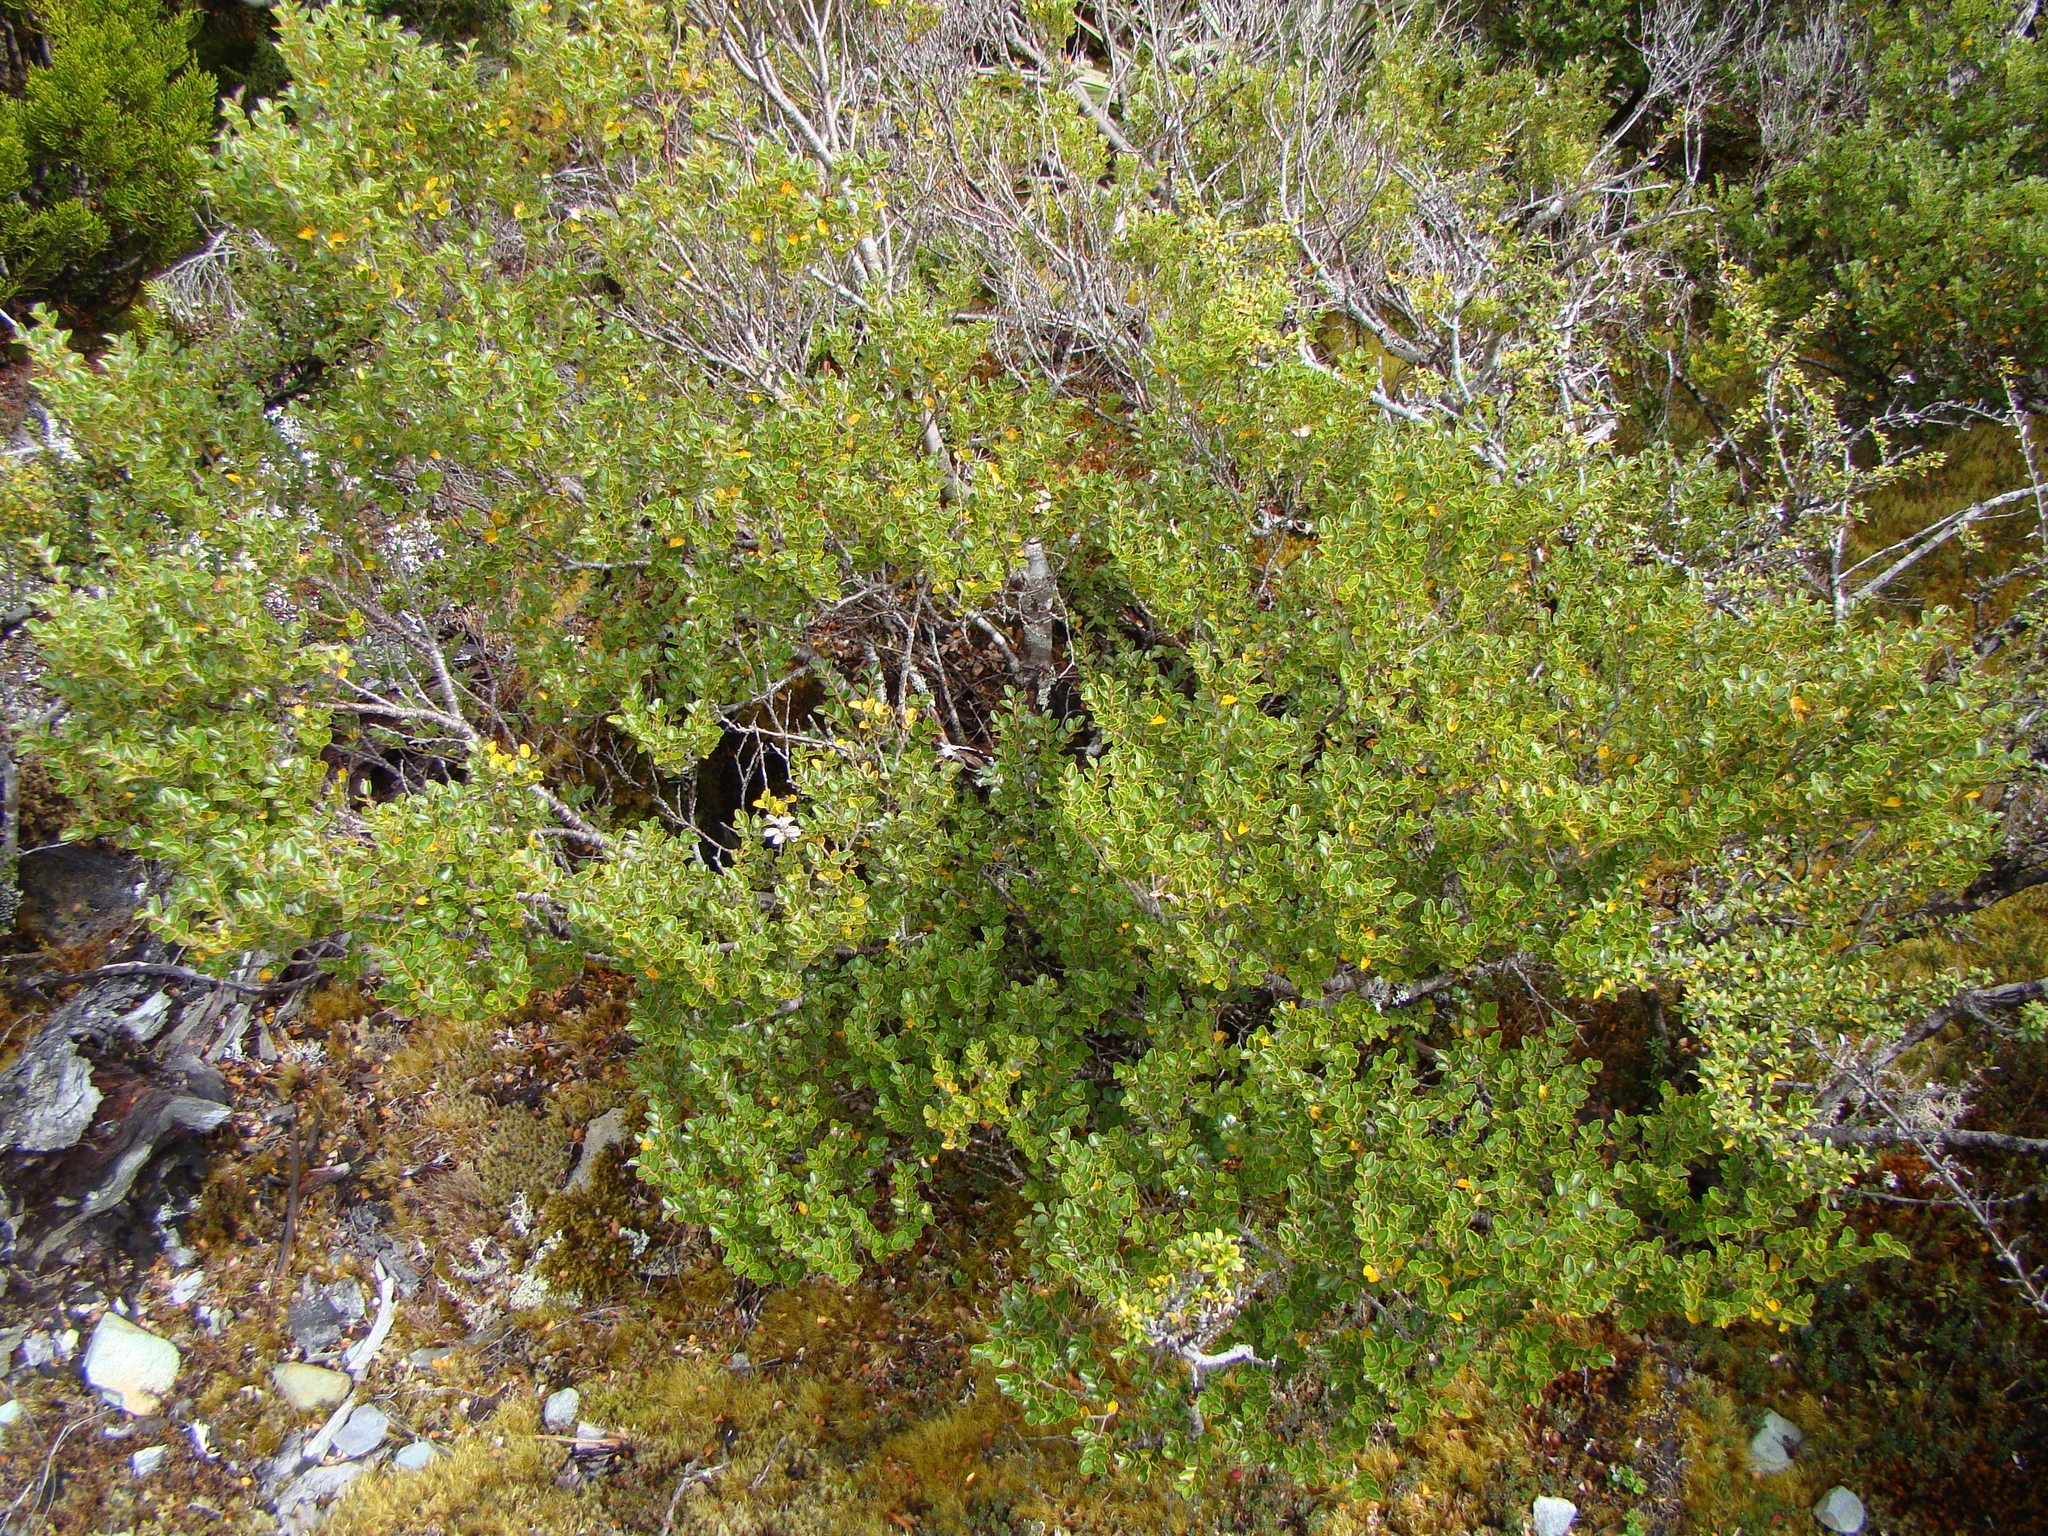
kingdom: Plantae
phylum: Tracheophyta
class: Magnoliopsida
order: Fagales
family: Nothofagaceae
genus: Nothofagus
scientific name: Nothofagus menziesii
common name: Silver beech
